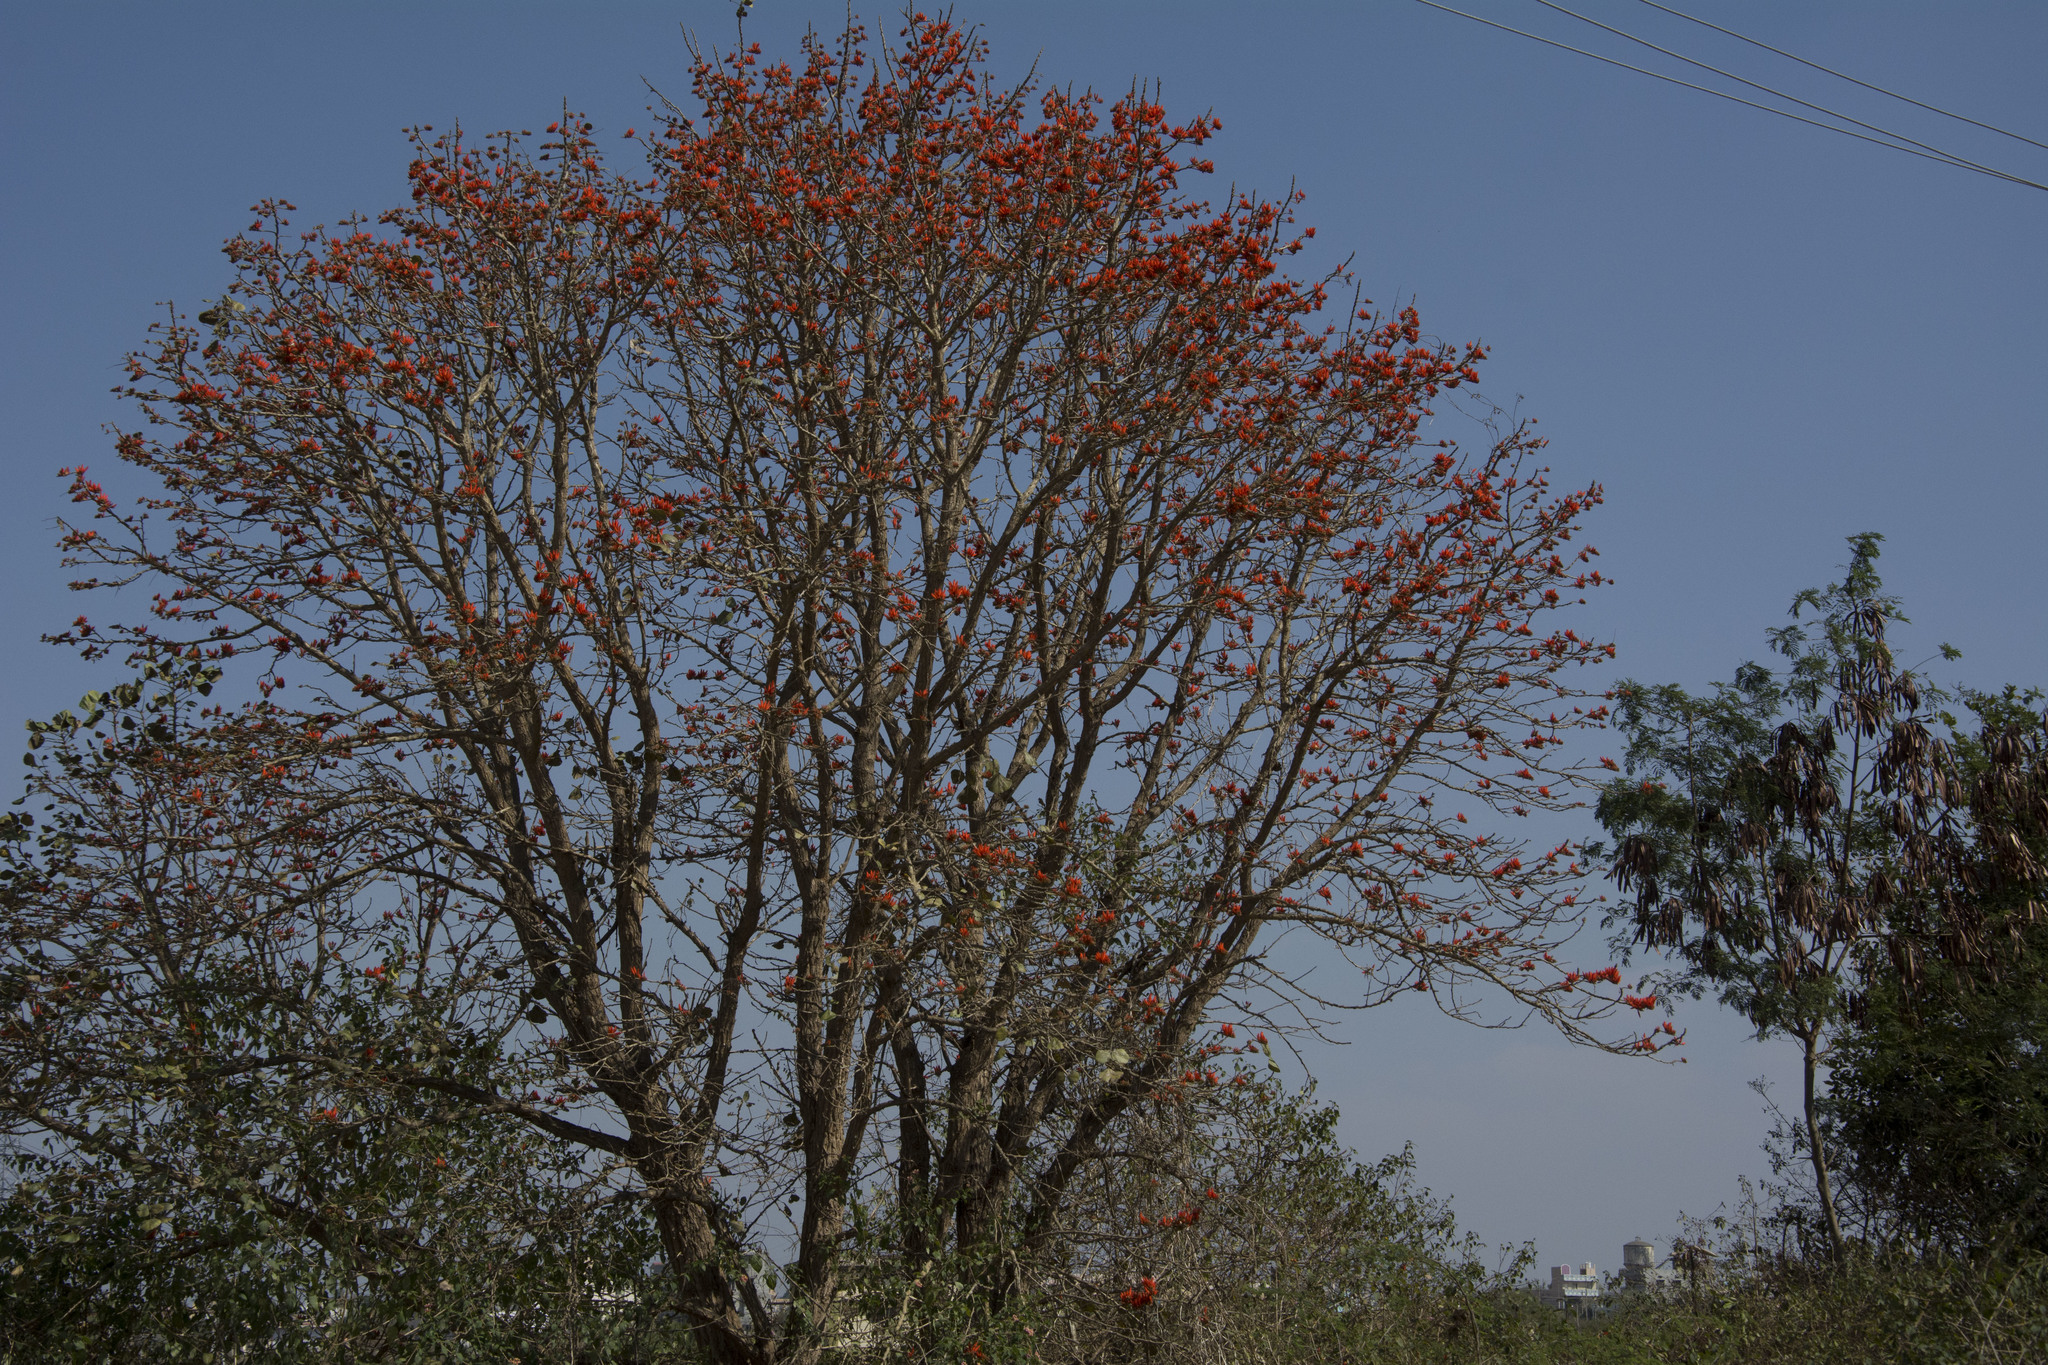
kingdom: Plantae
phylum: Tracheophyta
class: Magnoliopsida
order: Fabales
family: Fabaceae
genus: Erythrina
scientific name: Erythrina suberosa
